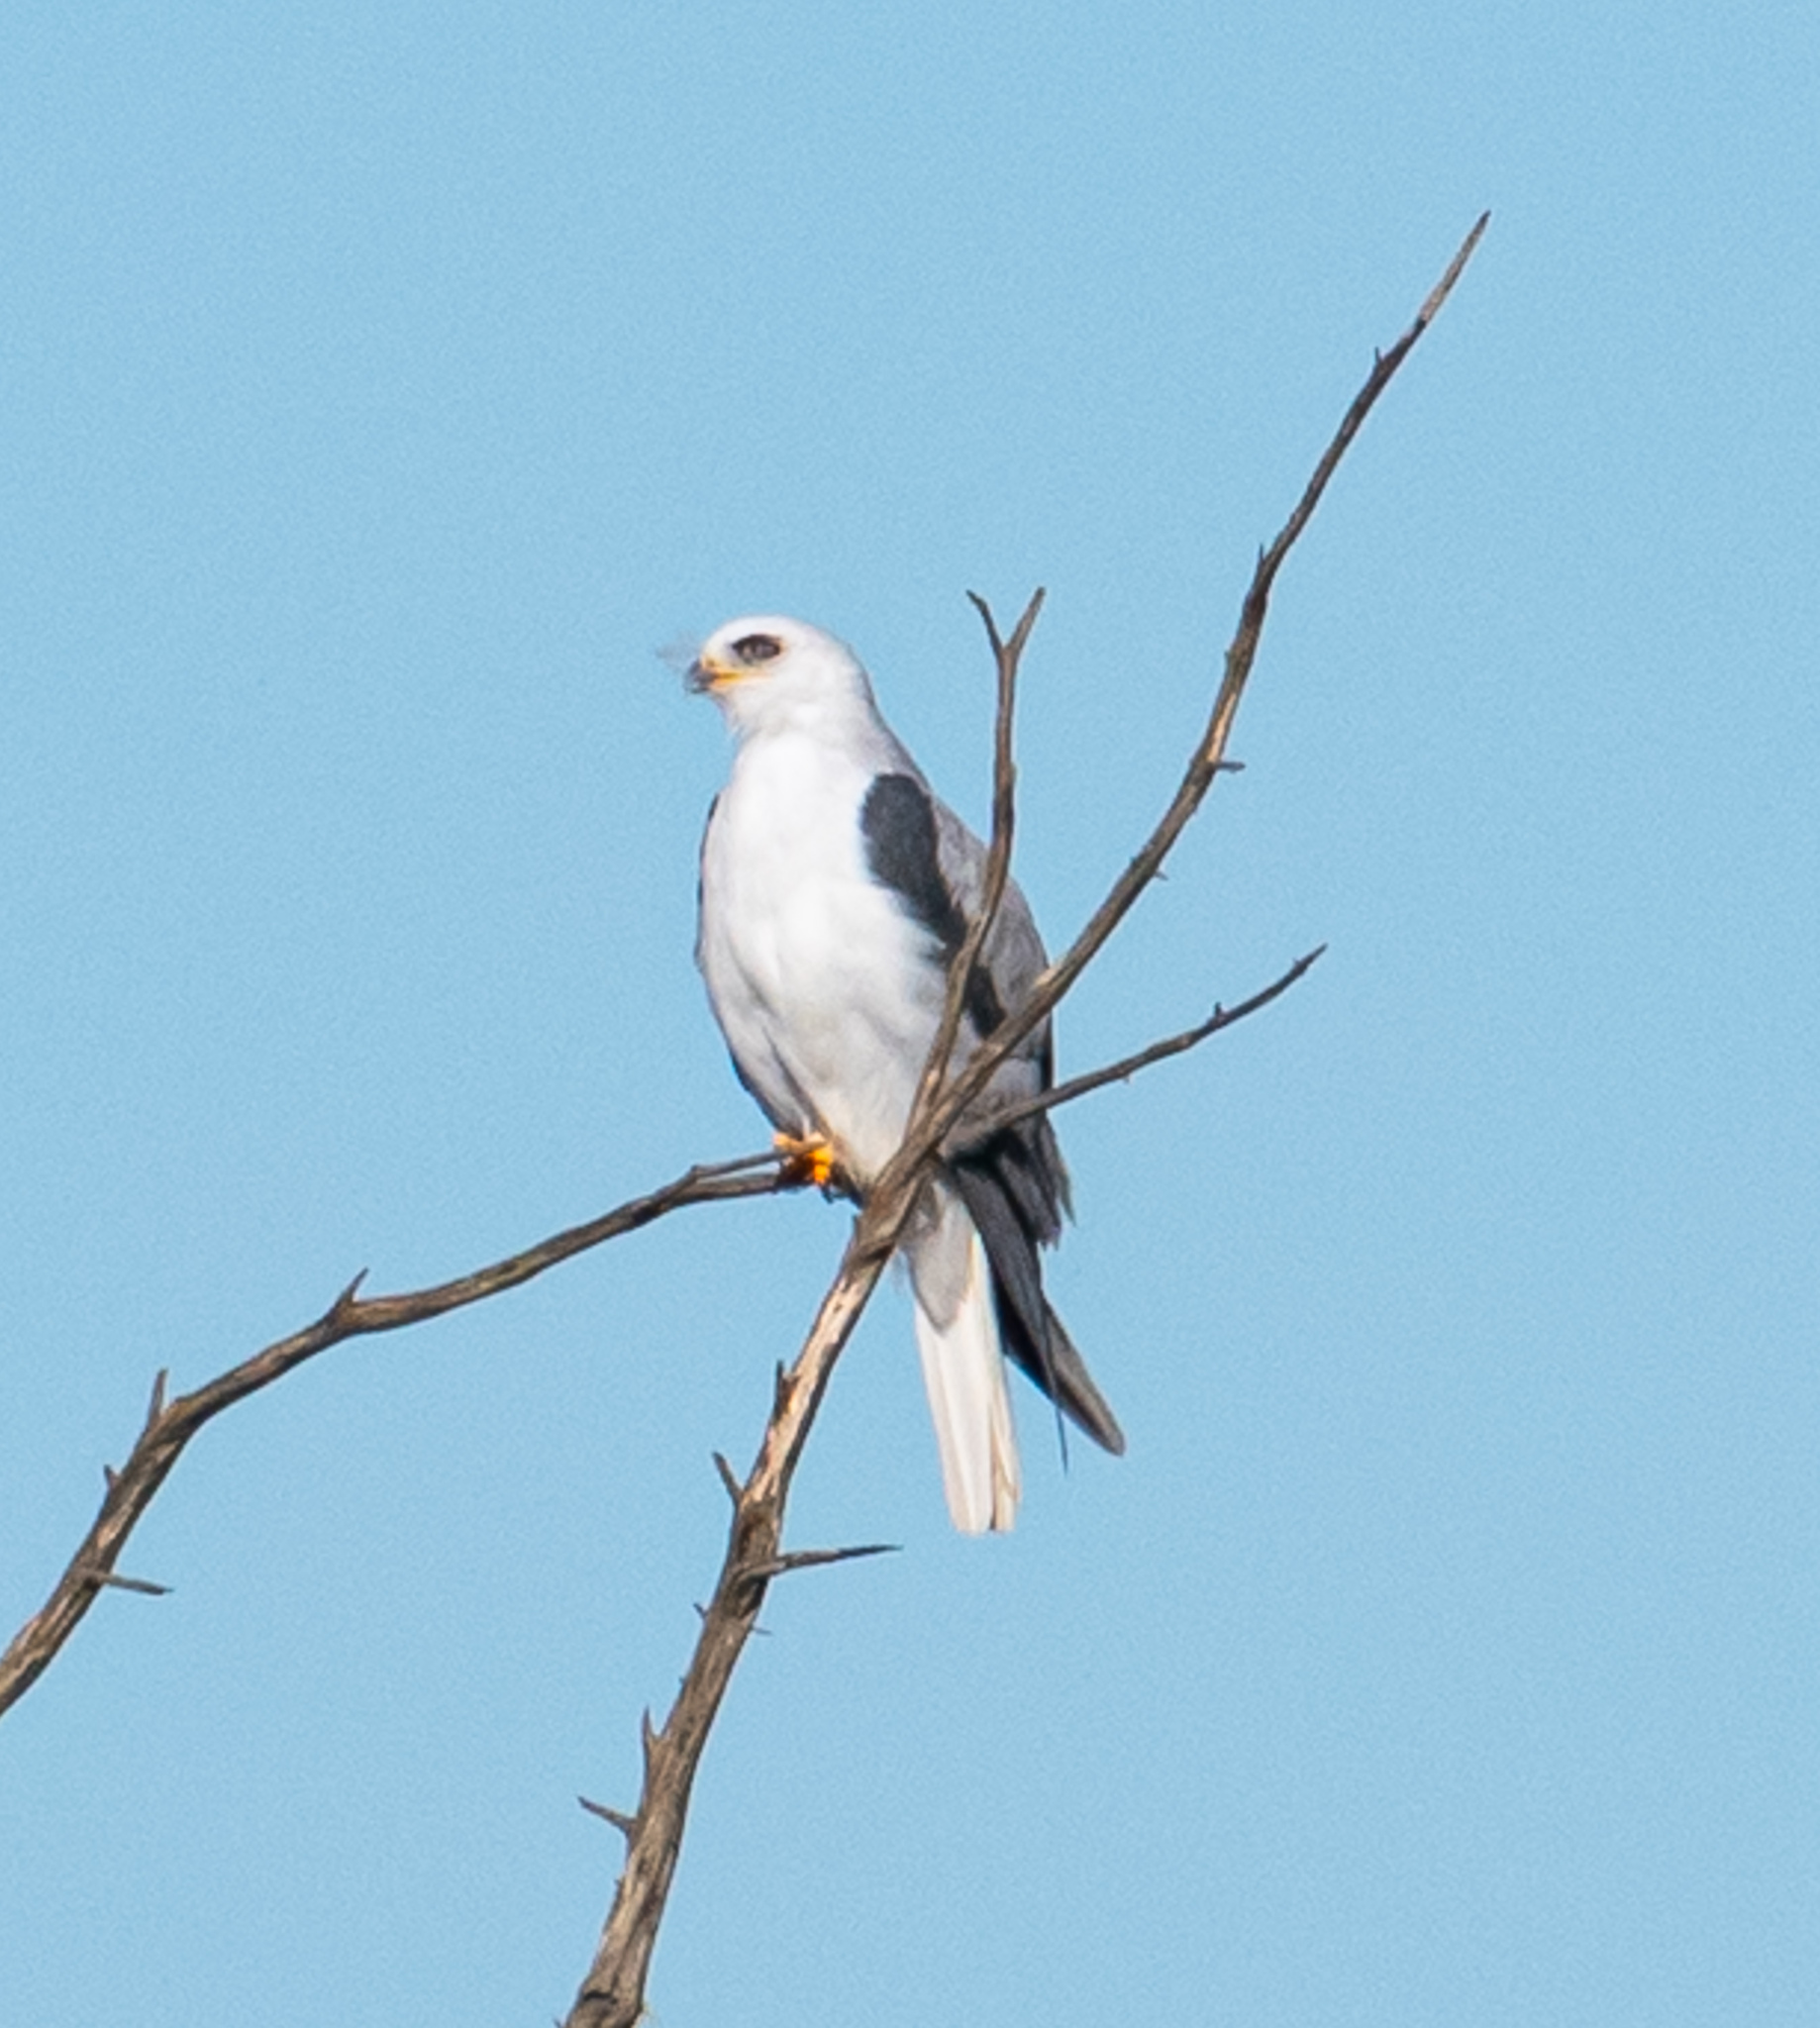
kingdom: Animalia
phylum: Chordata
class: Aves
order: Accipitriformes
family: Accipitridae
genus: Elanus
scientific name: Elanus leucurus
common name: White-tailed kite
